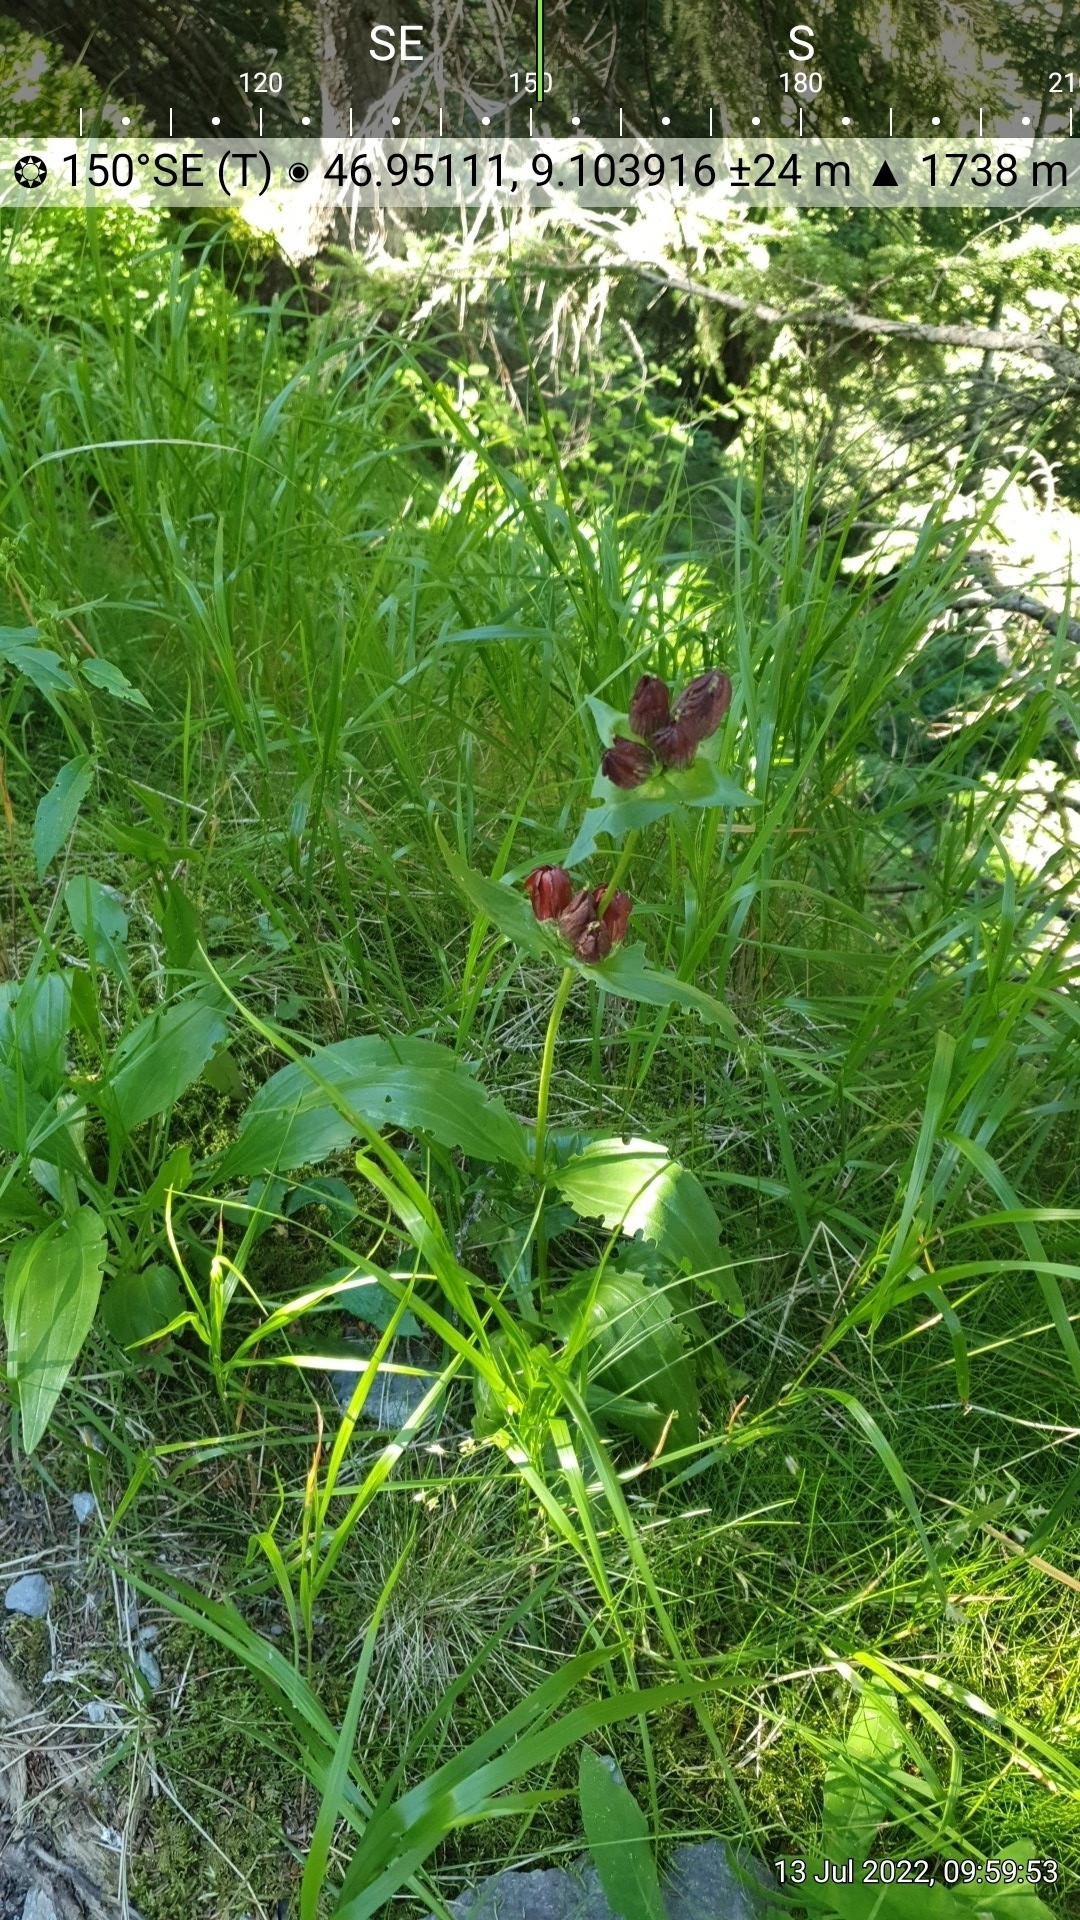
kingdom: Plantae
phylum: Tracheophyta
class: Magnoliopsida
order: Gentianales
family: Gentianaceae
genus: Gentiana
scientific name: Gentiana purpurea
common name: Purple gentian
